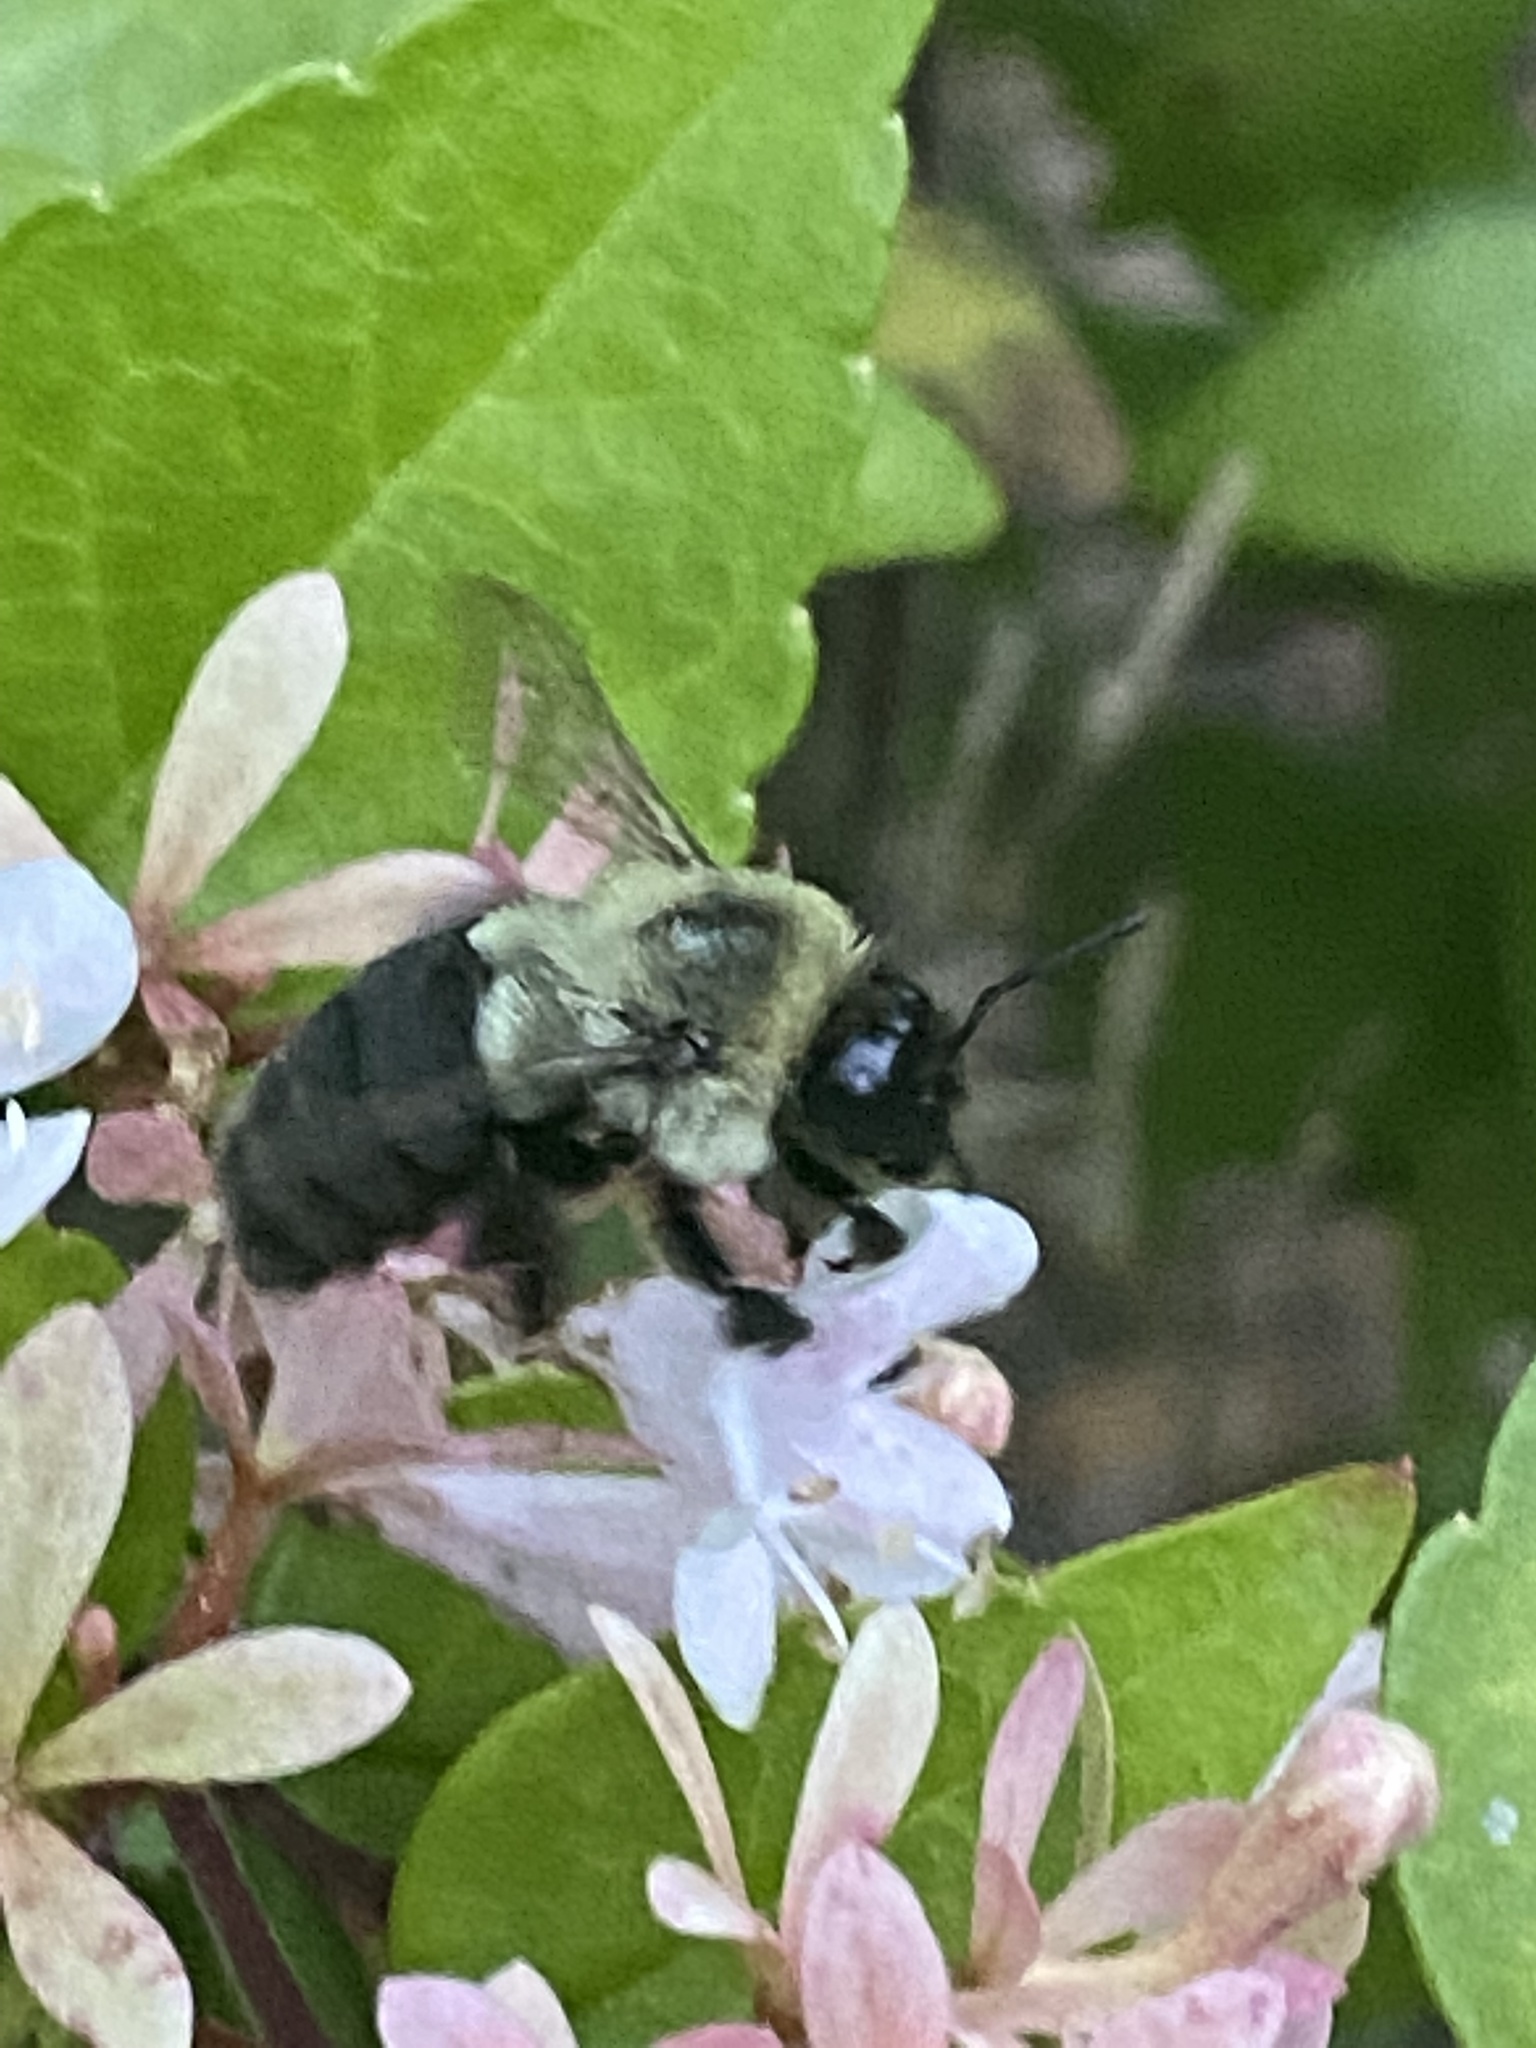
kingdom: Animalia
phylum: Arthropoda
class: Insecta
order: Hymenoptera
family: Apidae
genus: Bombus
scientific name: Bombus impatiens
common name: Common eastern bumble bee
